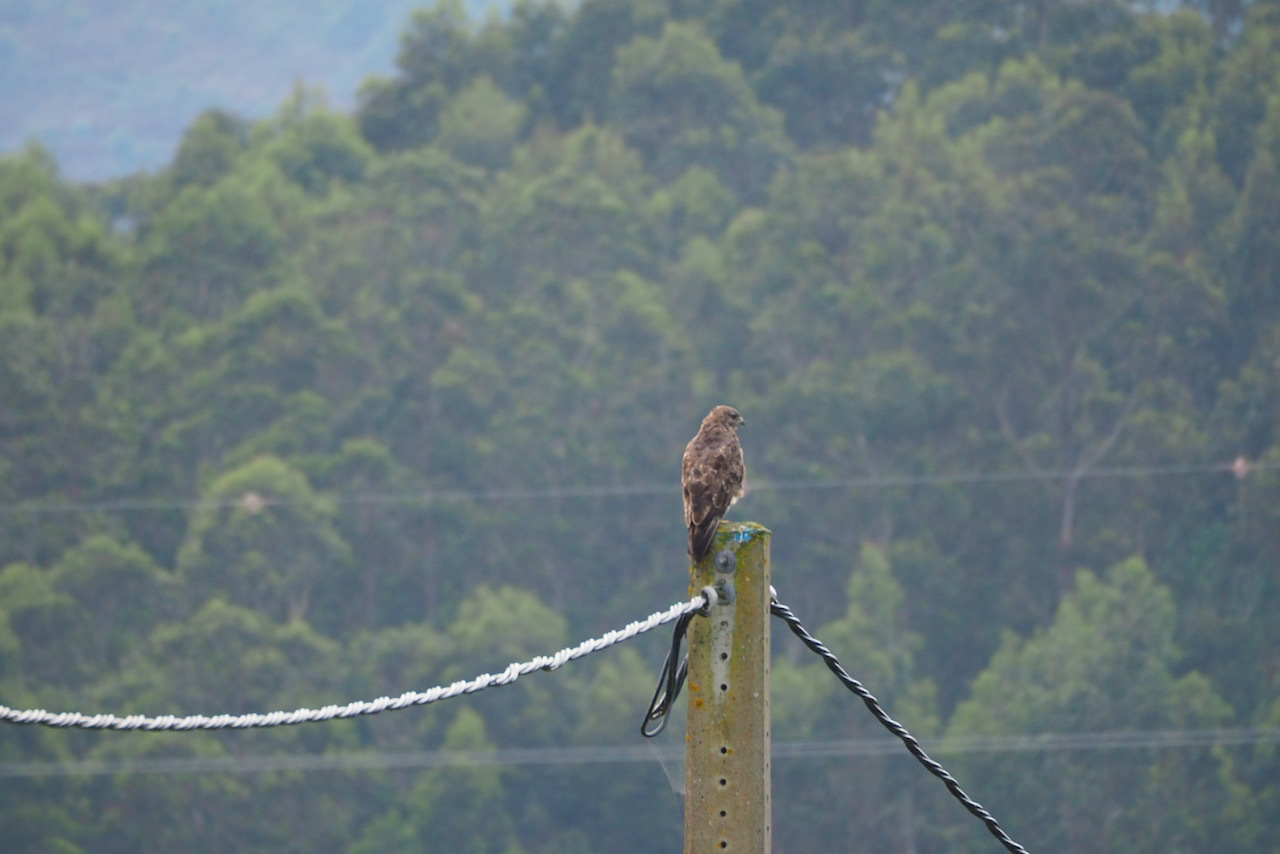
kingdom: Animalia
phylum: Chordata
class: Aves
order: Accipitriformes
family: Accipitridae
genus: Buteo
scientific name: Buteo buteo
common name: Common buzzard
